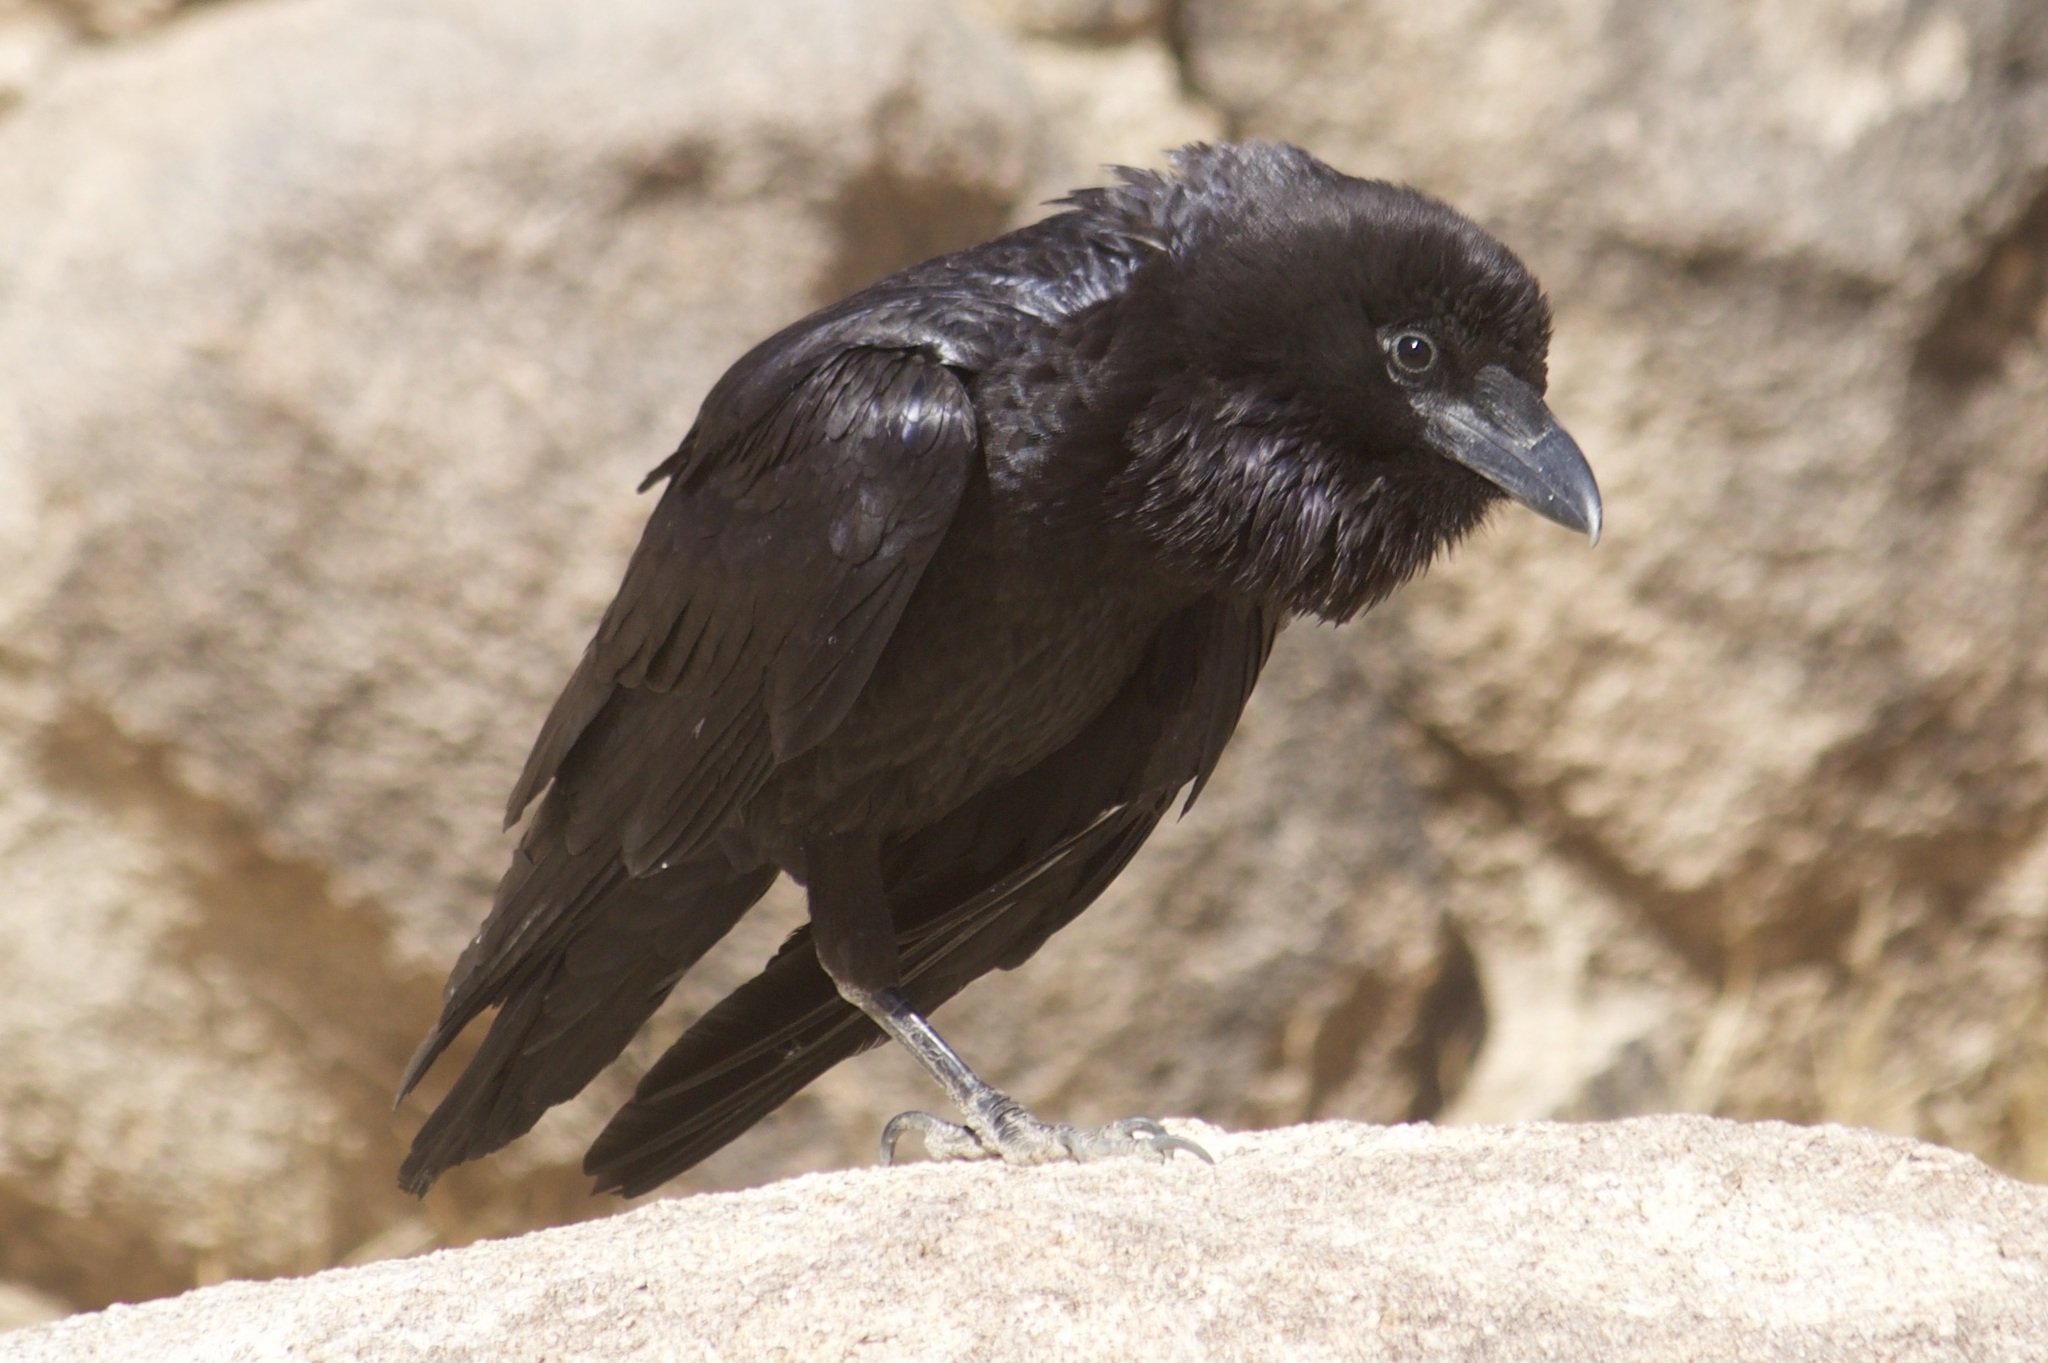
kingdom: Animalia
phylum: Chordata
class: Aves
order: Passeriformes
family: Corvidae
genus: Corvus
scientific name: Corvus corax
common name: Common raven
